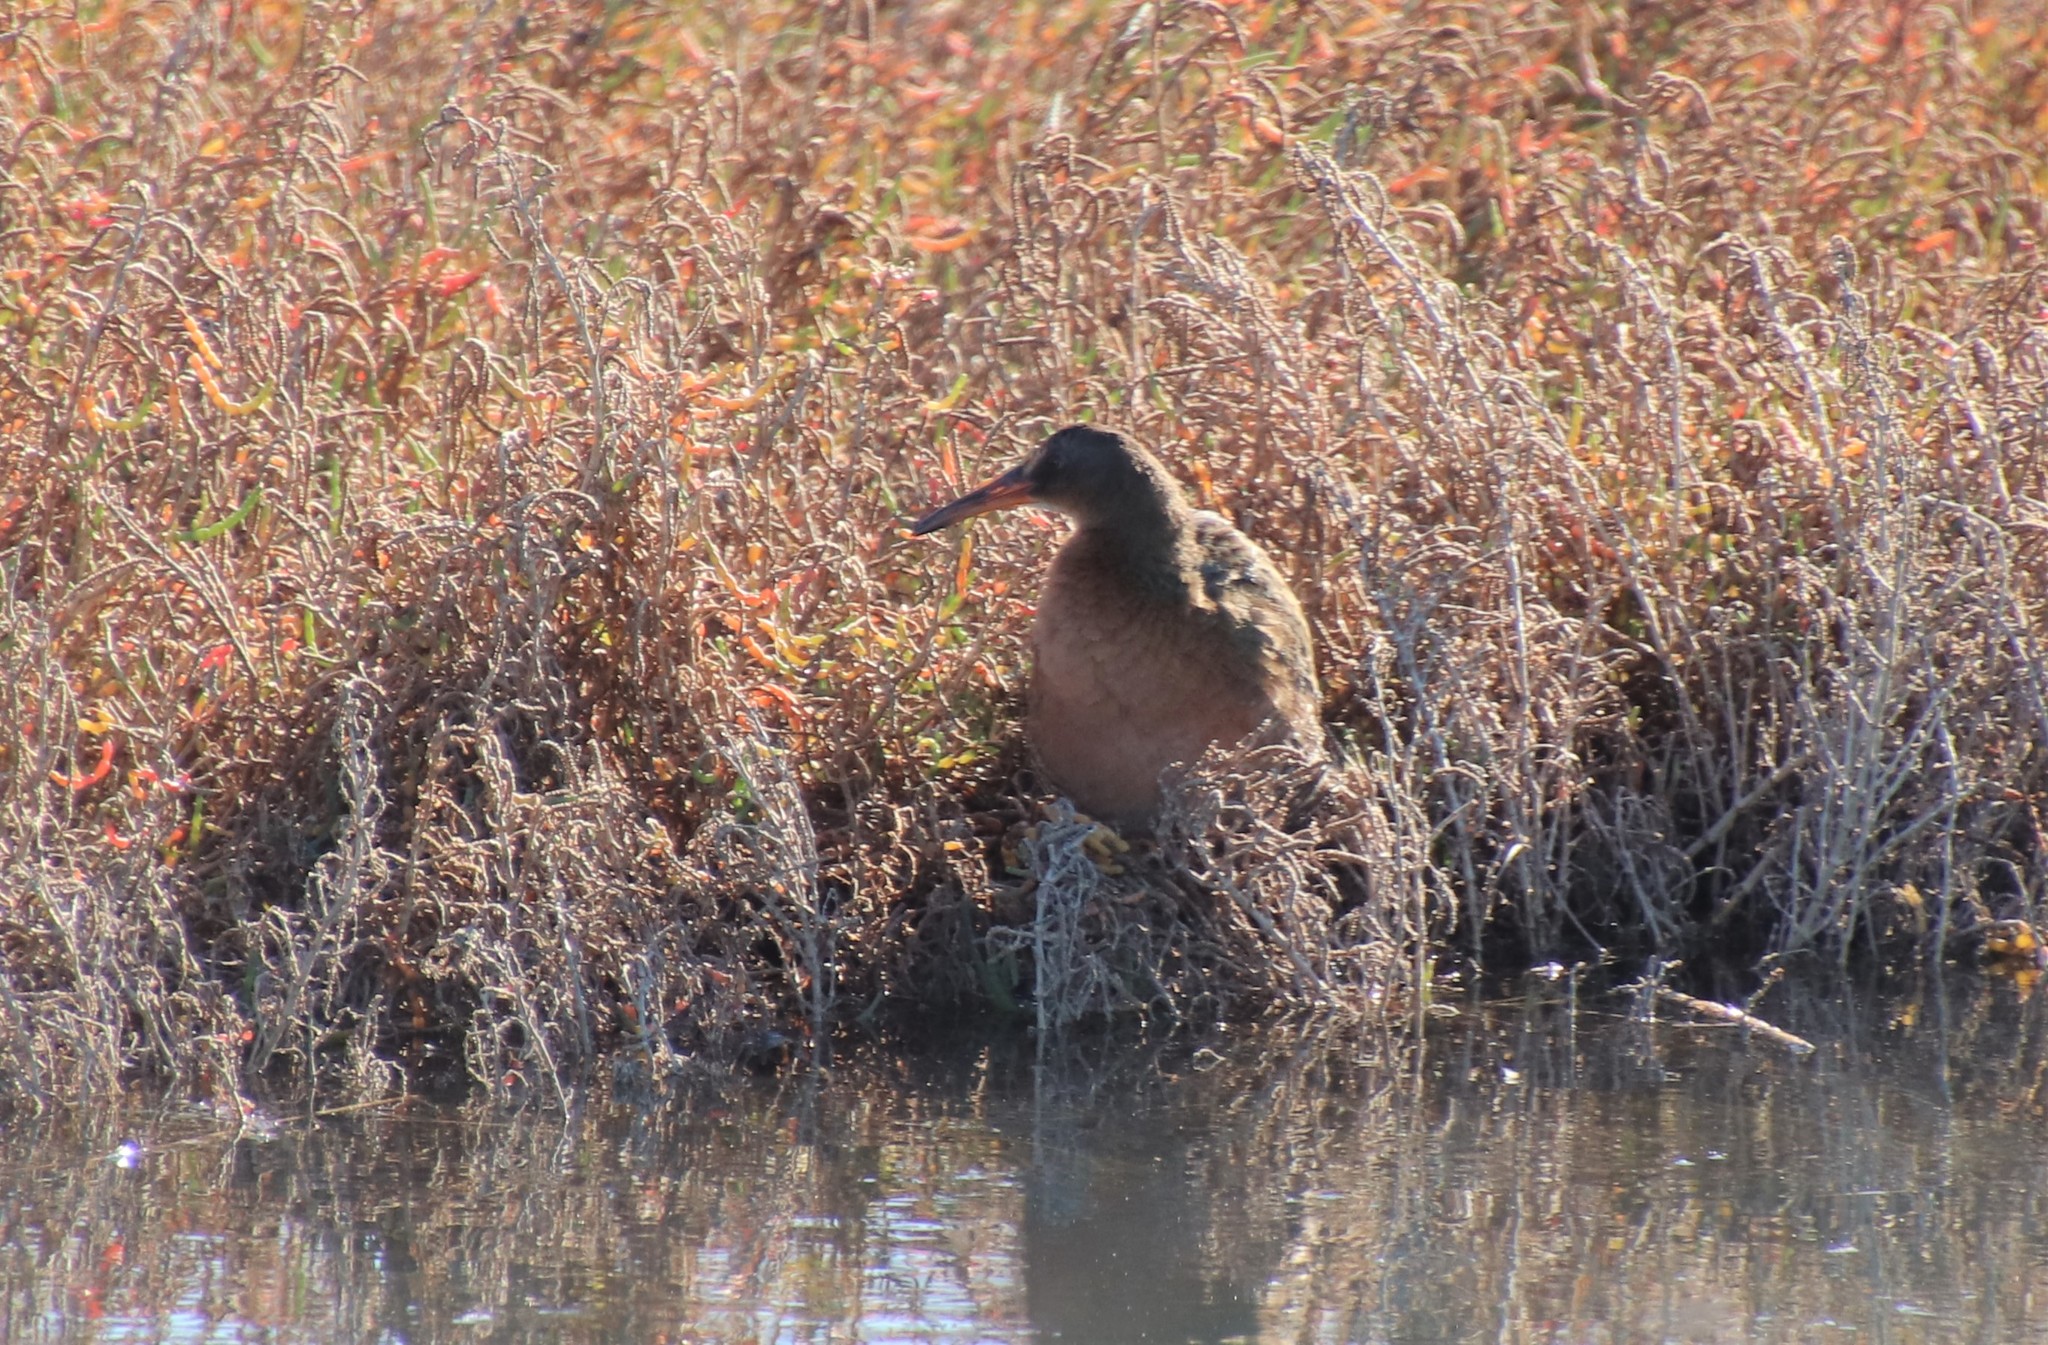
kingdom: Animalia
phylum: Chordata
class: Aves
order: Gruiformes
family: Rallidae
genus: Rallus
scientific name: Rallus obsoletus
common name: Ridgway's rail
